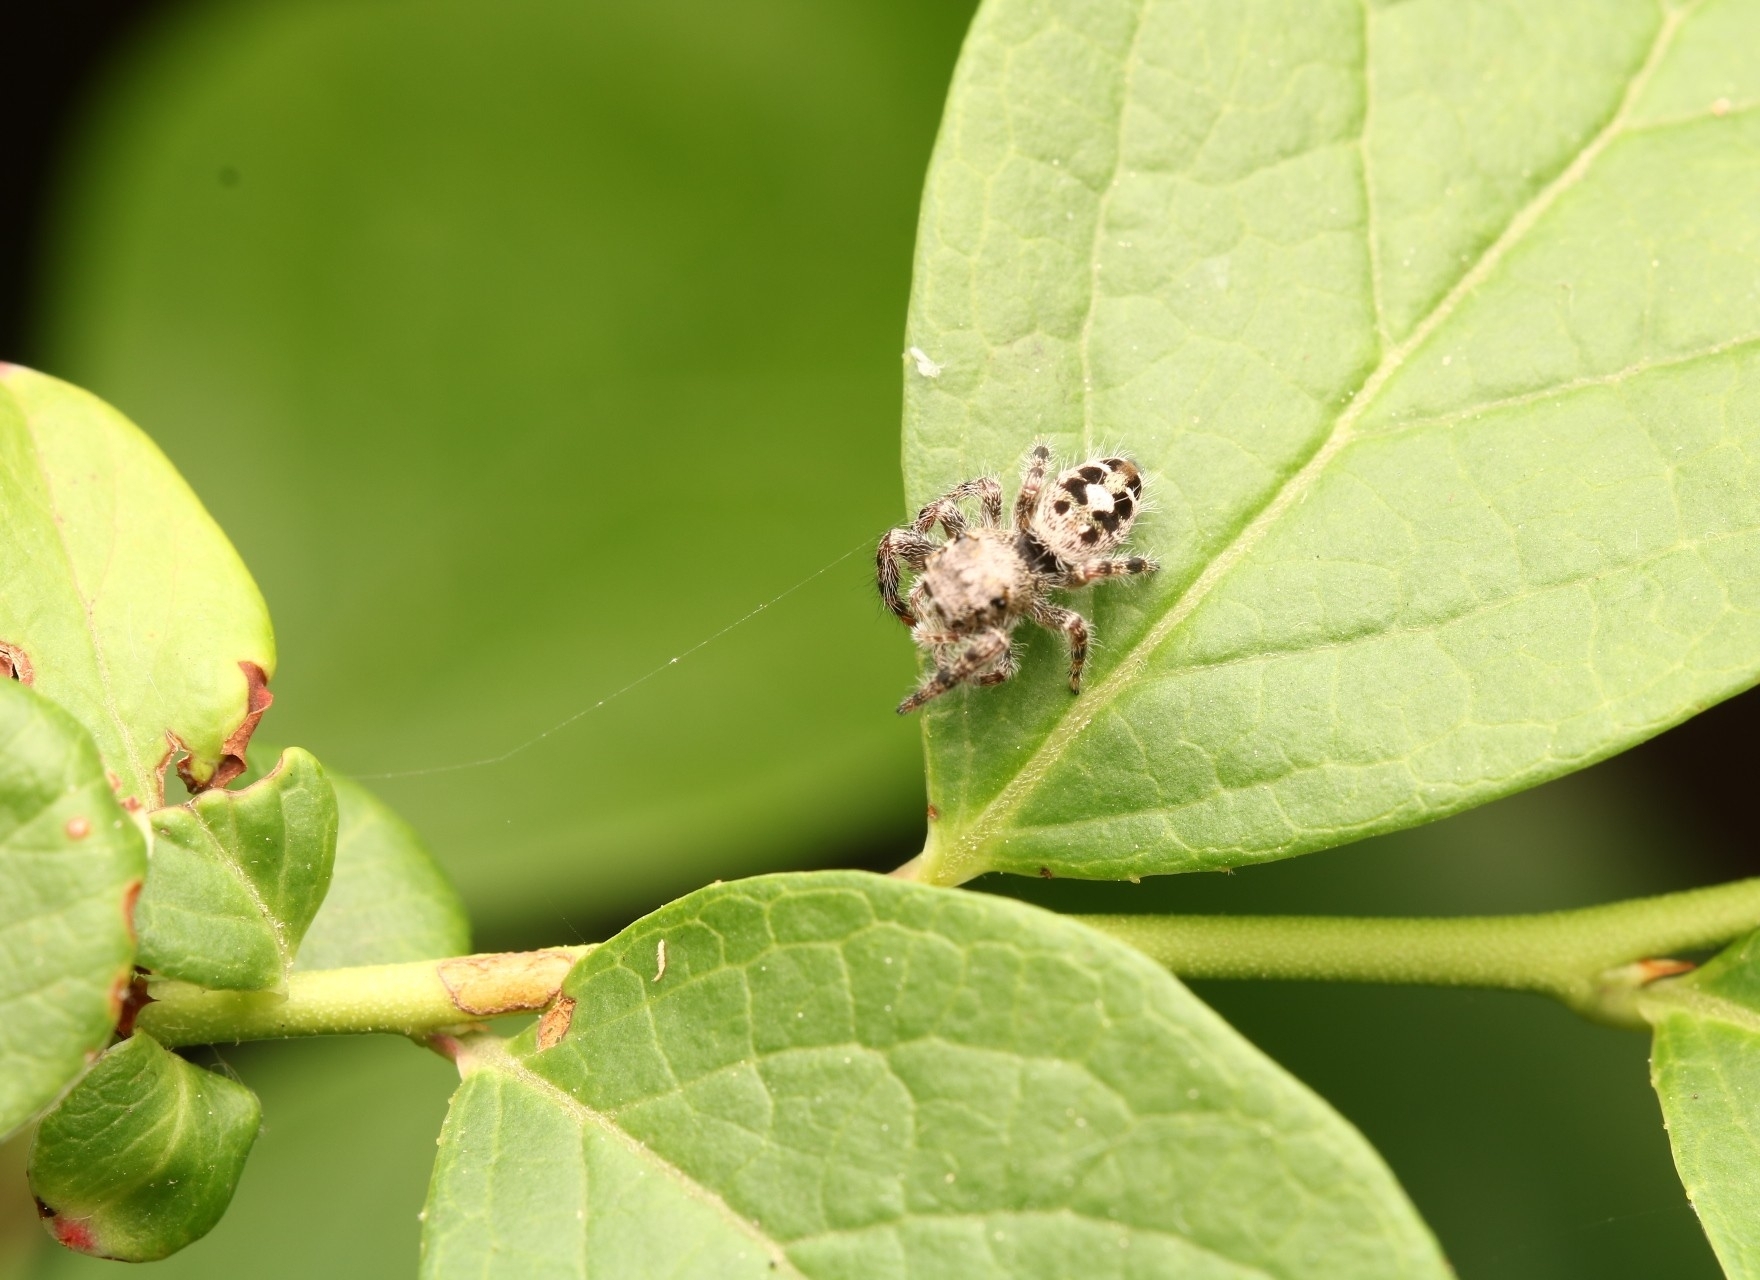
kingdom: Animalia
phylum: Arthropoda
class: Arachnida
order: Araneae
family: Salticidae
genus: Phidippus
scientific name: Phidippus putnami
